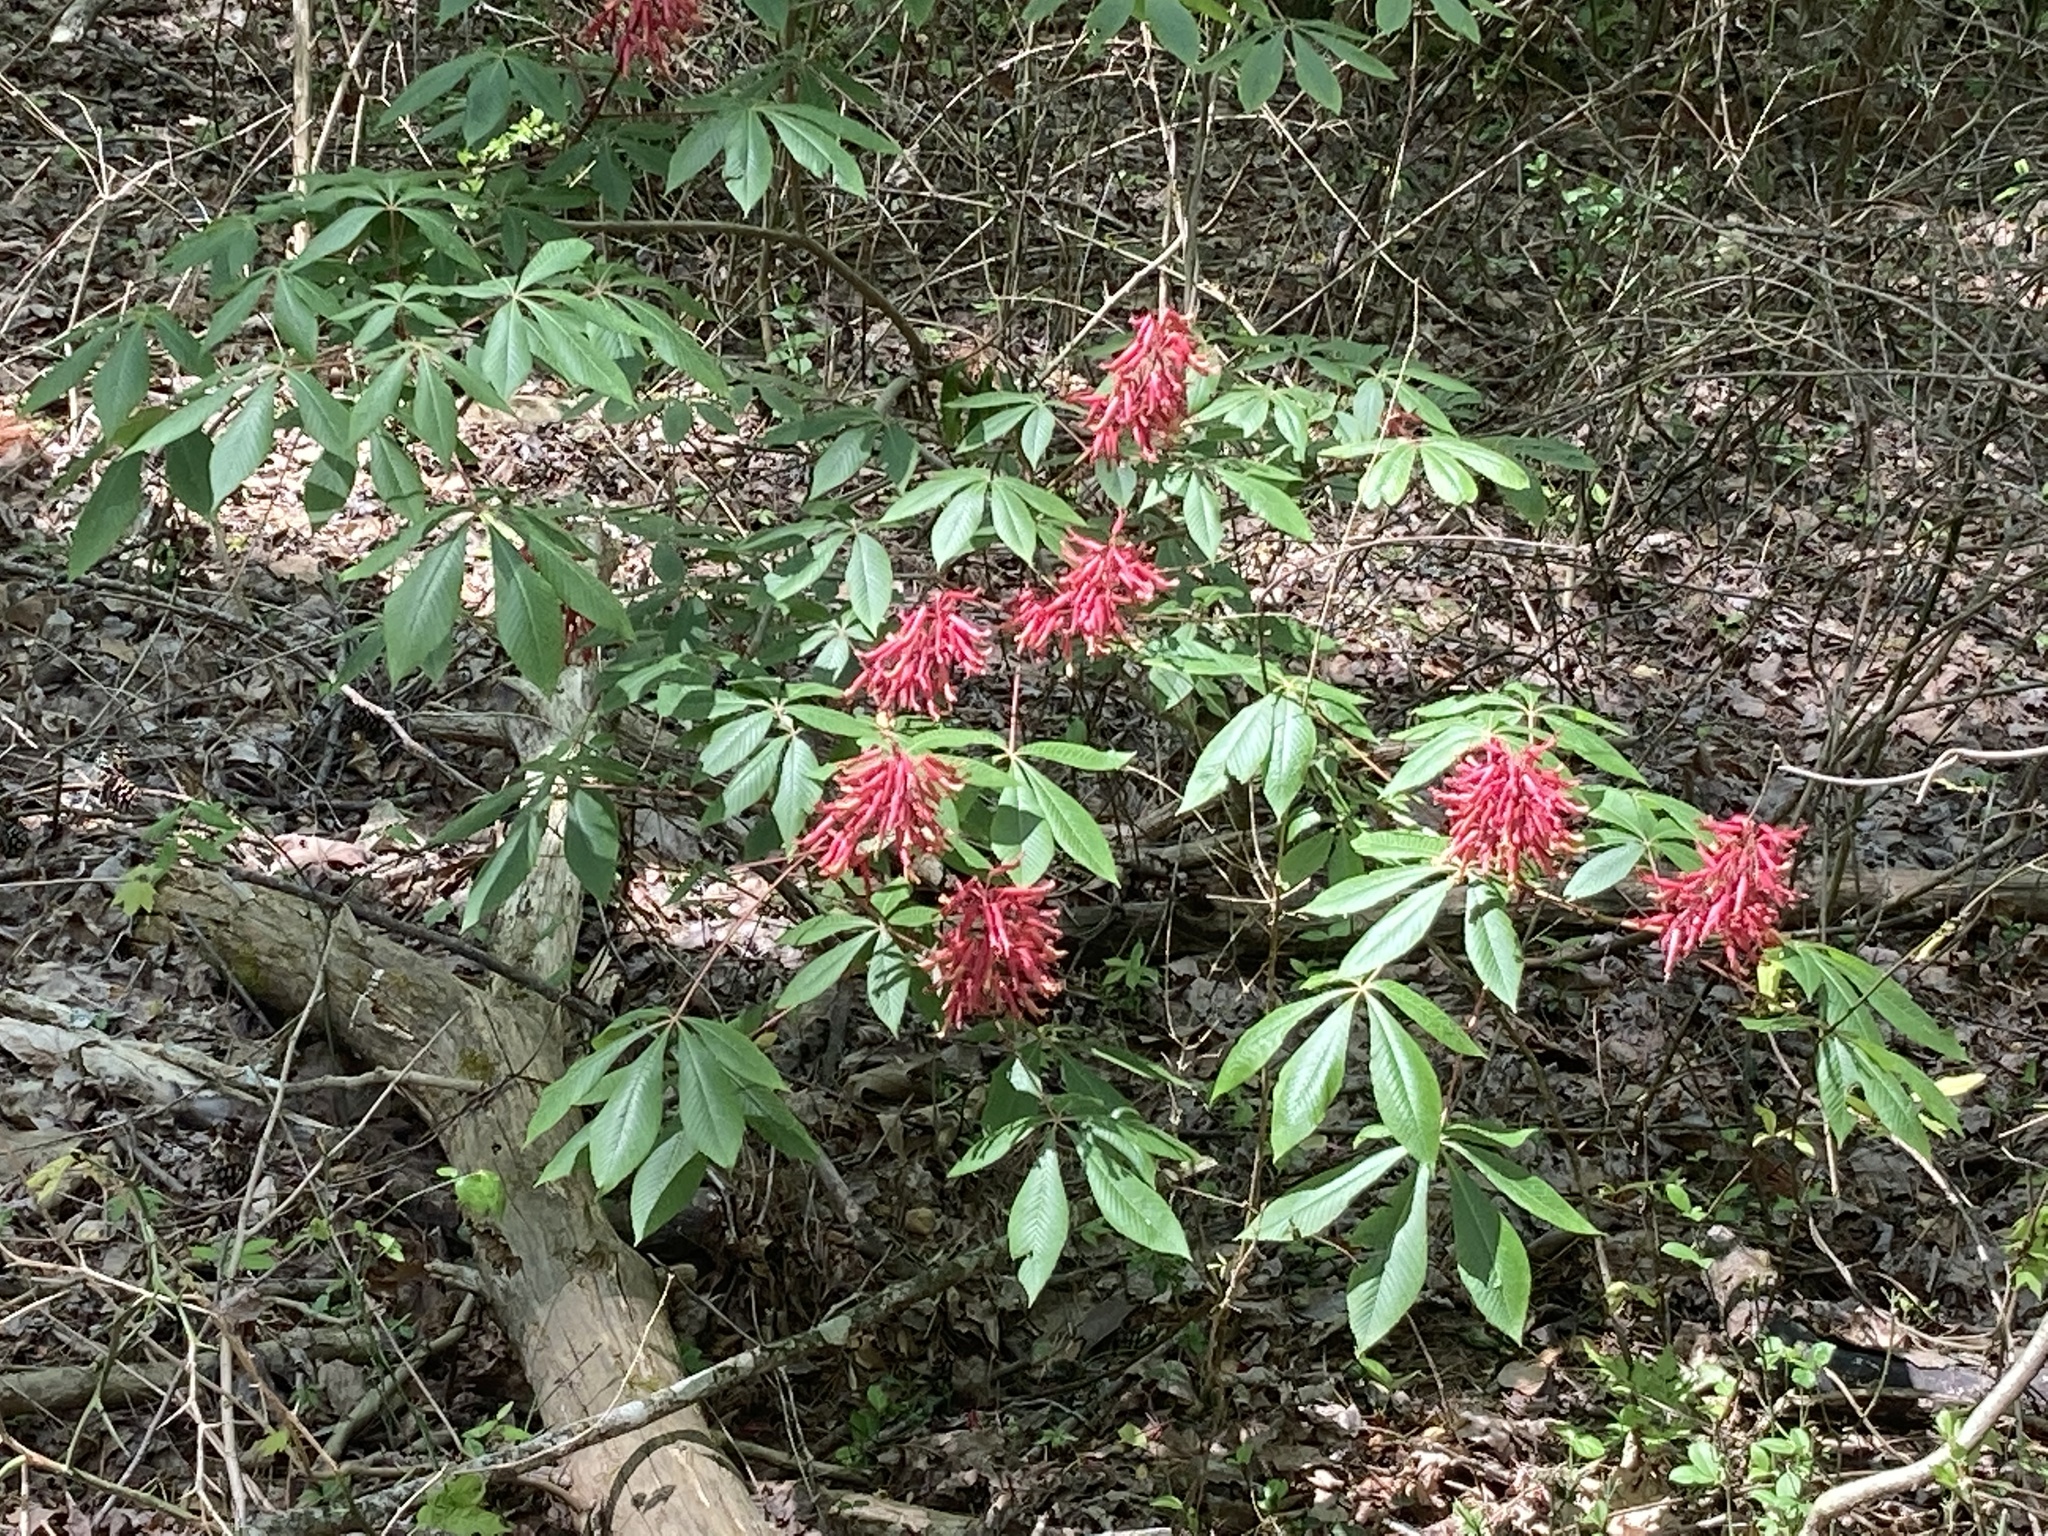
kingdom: Plantae
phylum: Tracheophyta
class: Magnoliopsida
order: Sapindales
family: Sapindaceae
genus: Aesculus
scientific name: Aesculus pavia
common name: Red buckeye
